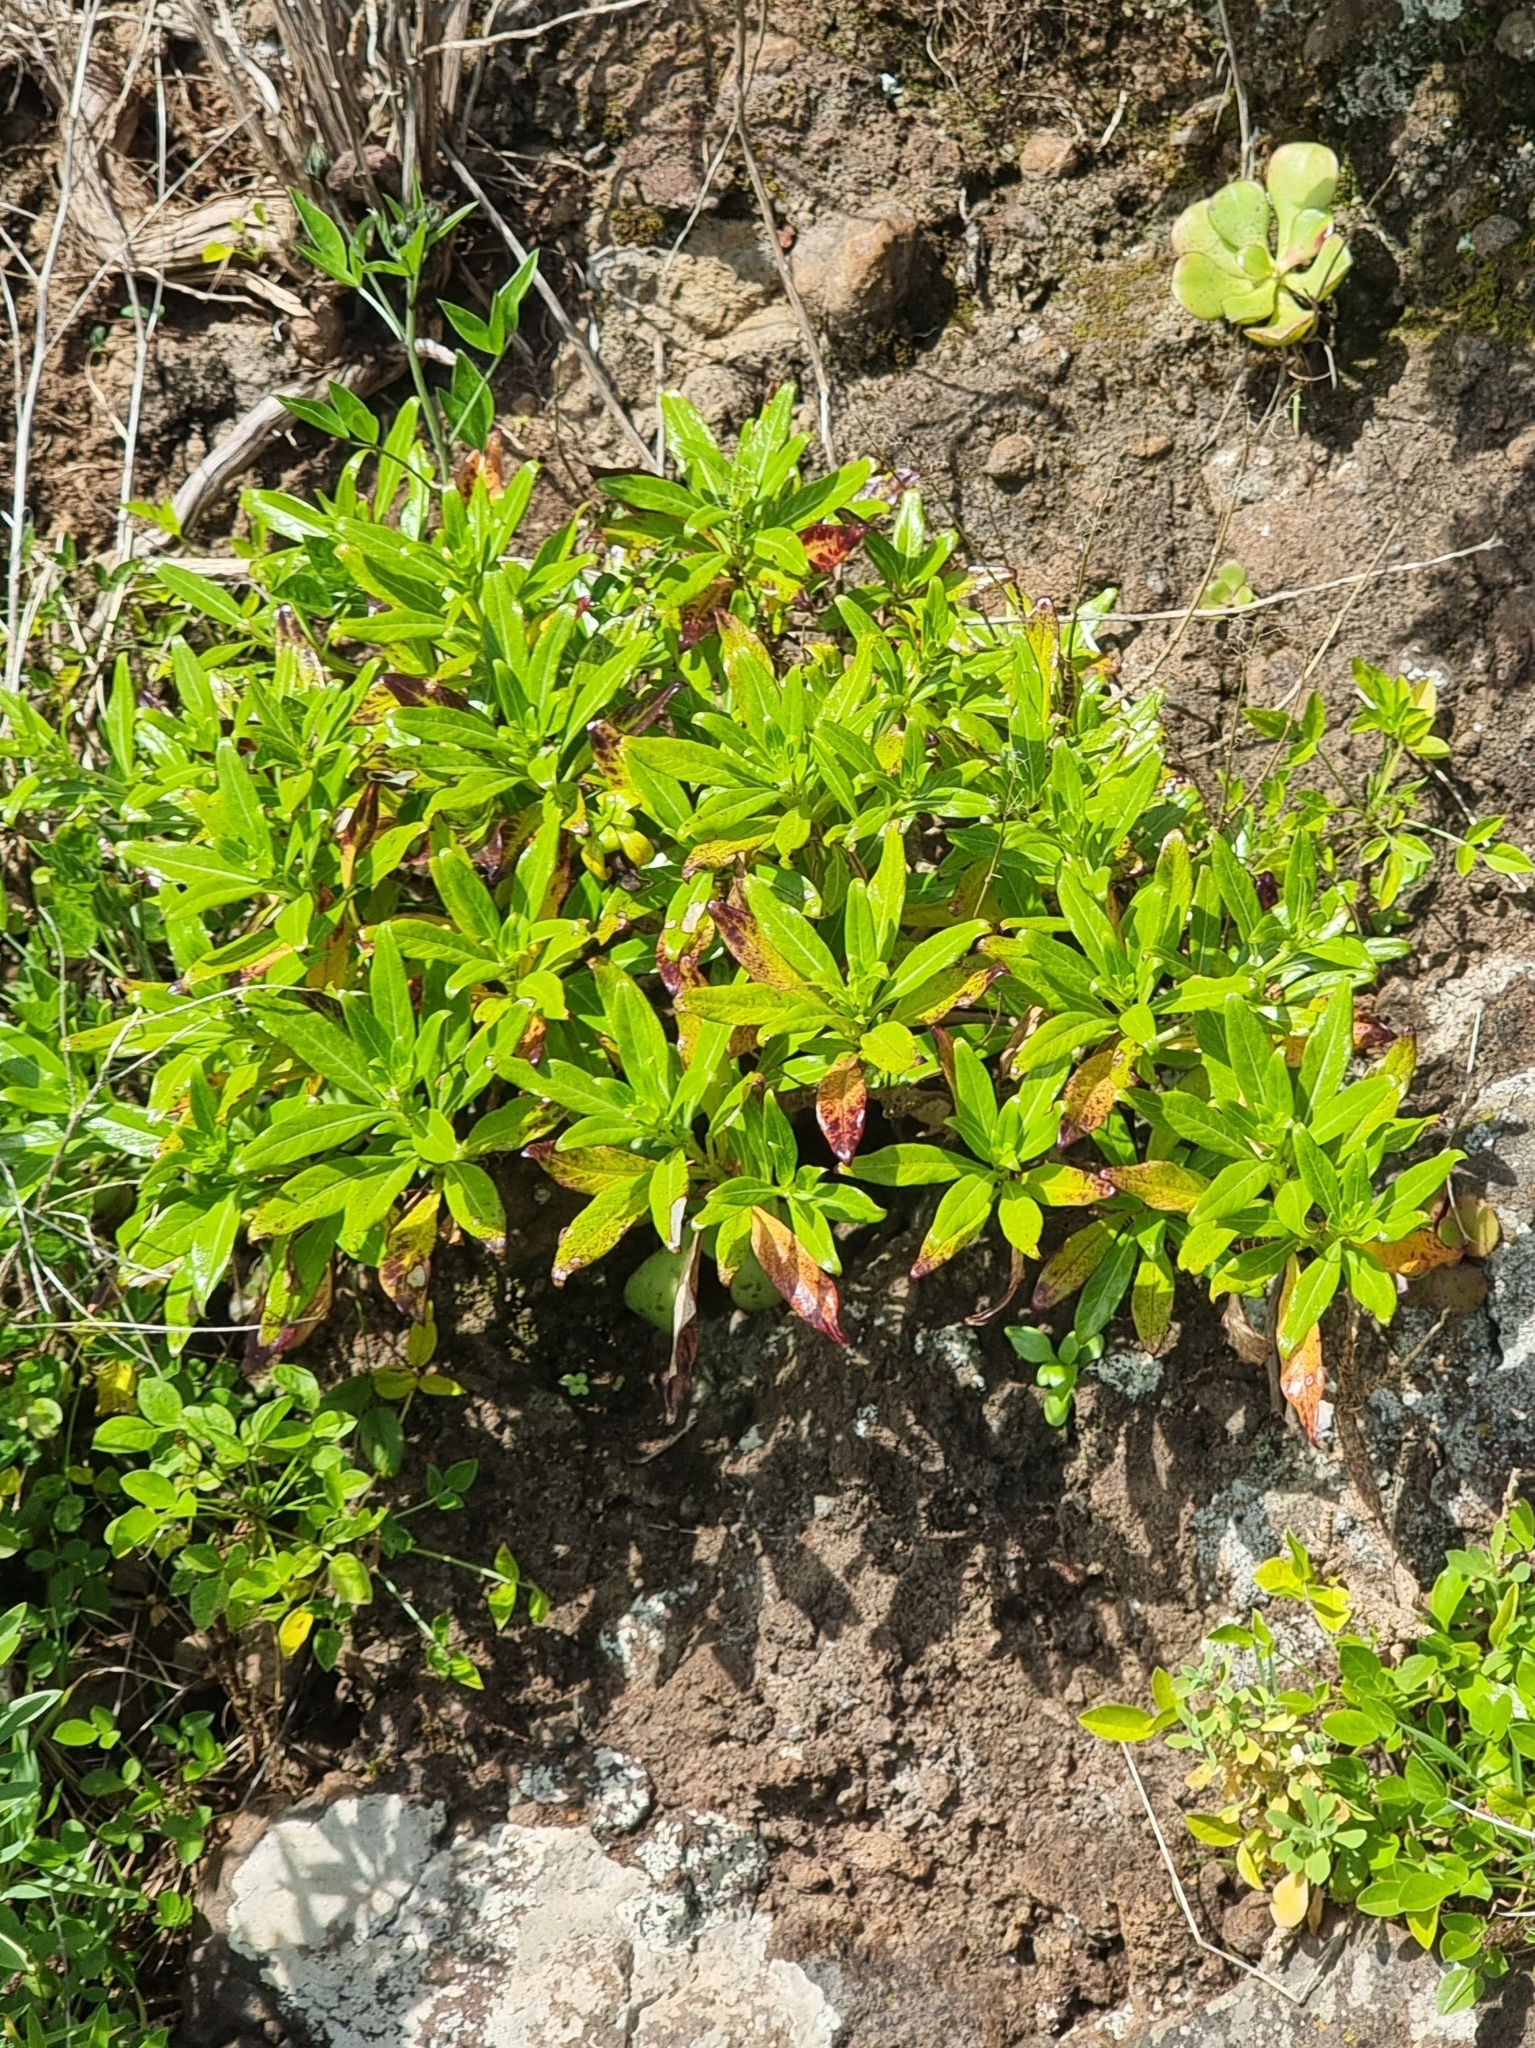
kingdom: Plantae
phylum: Tracheophyta
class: Magnoliopsida
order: Gentianales
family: Rubiaceae
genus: Phyllis
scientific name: Phyllis nobla
